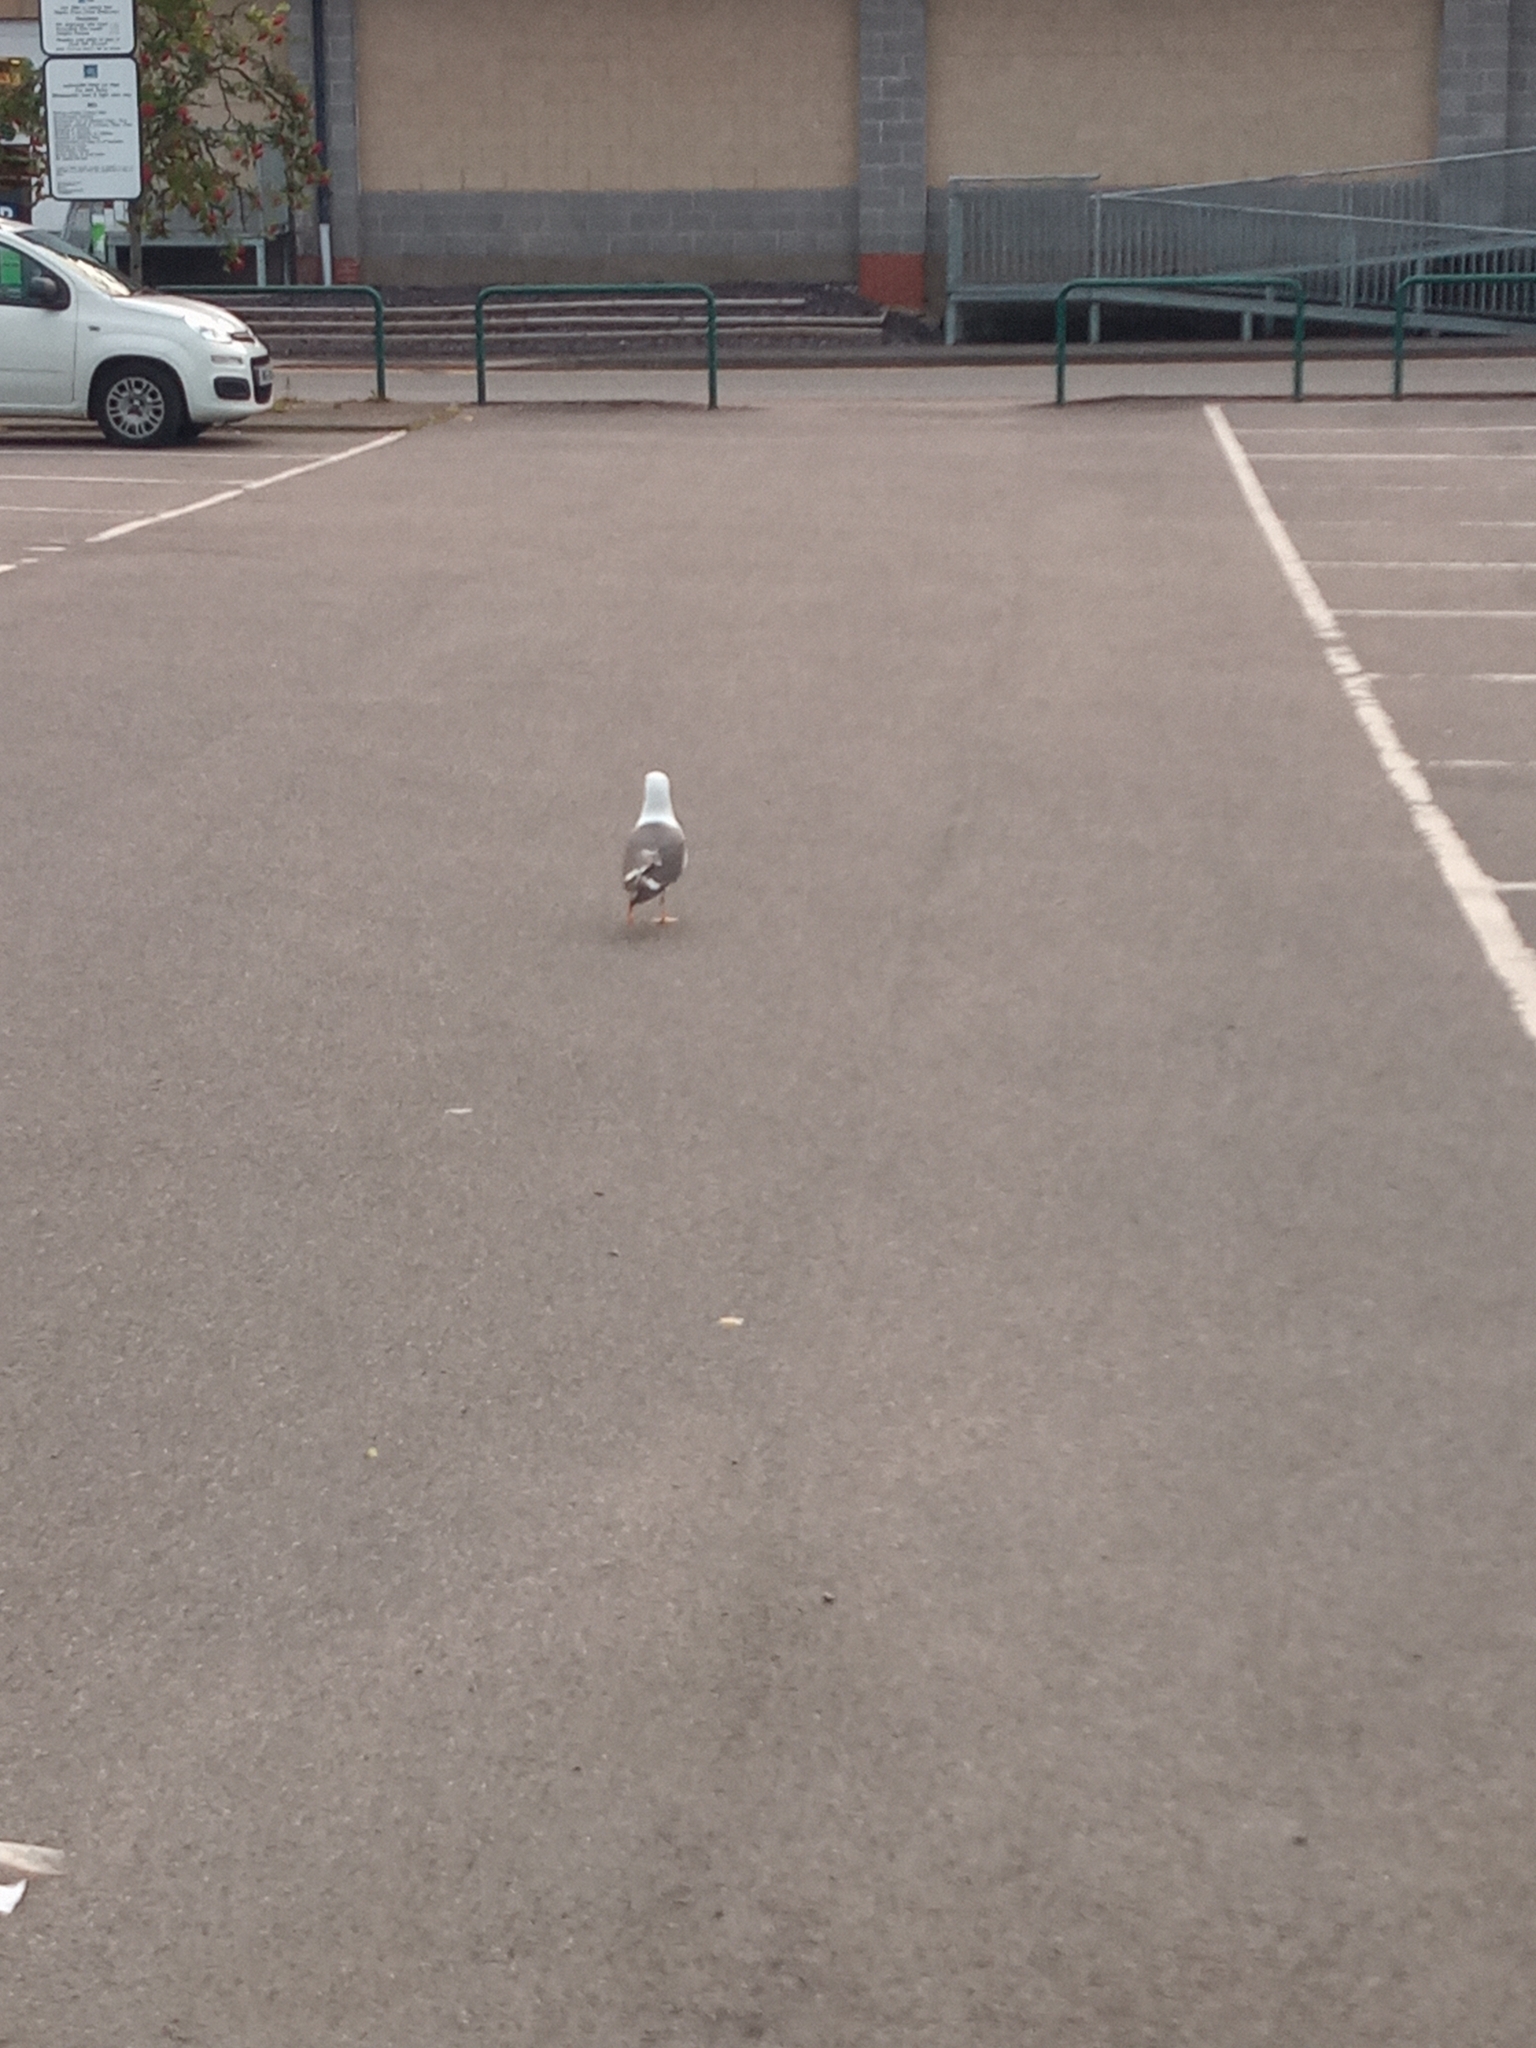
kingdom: Animalia
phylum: Chordata
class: Aves
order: Charadriiformes
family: Laridae
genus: Larus
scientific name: Larus fuscus
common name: Lesser black-backed gull
